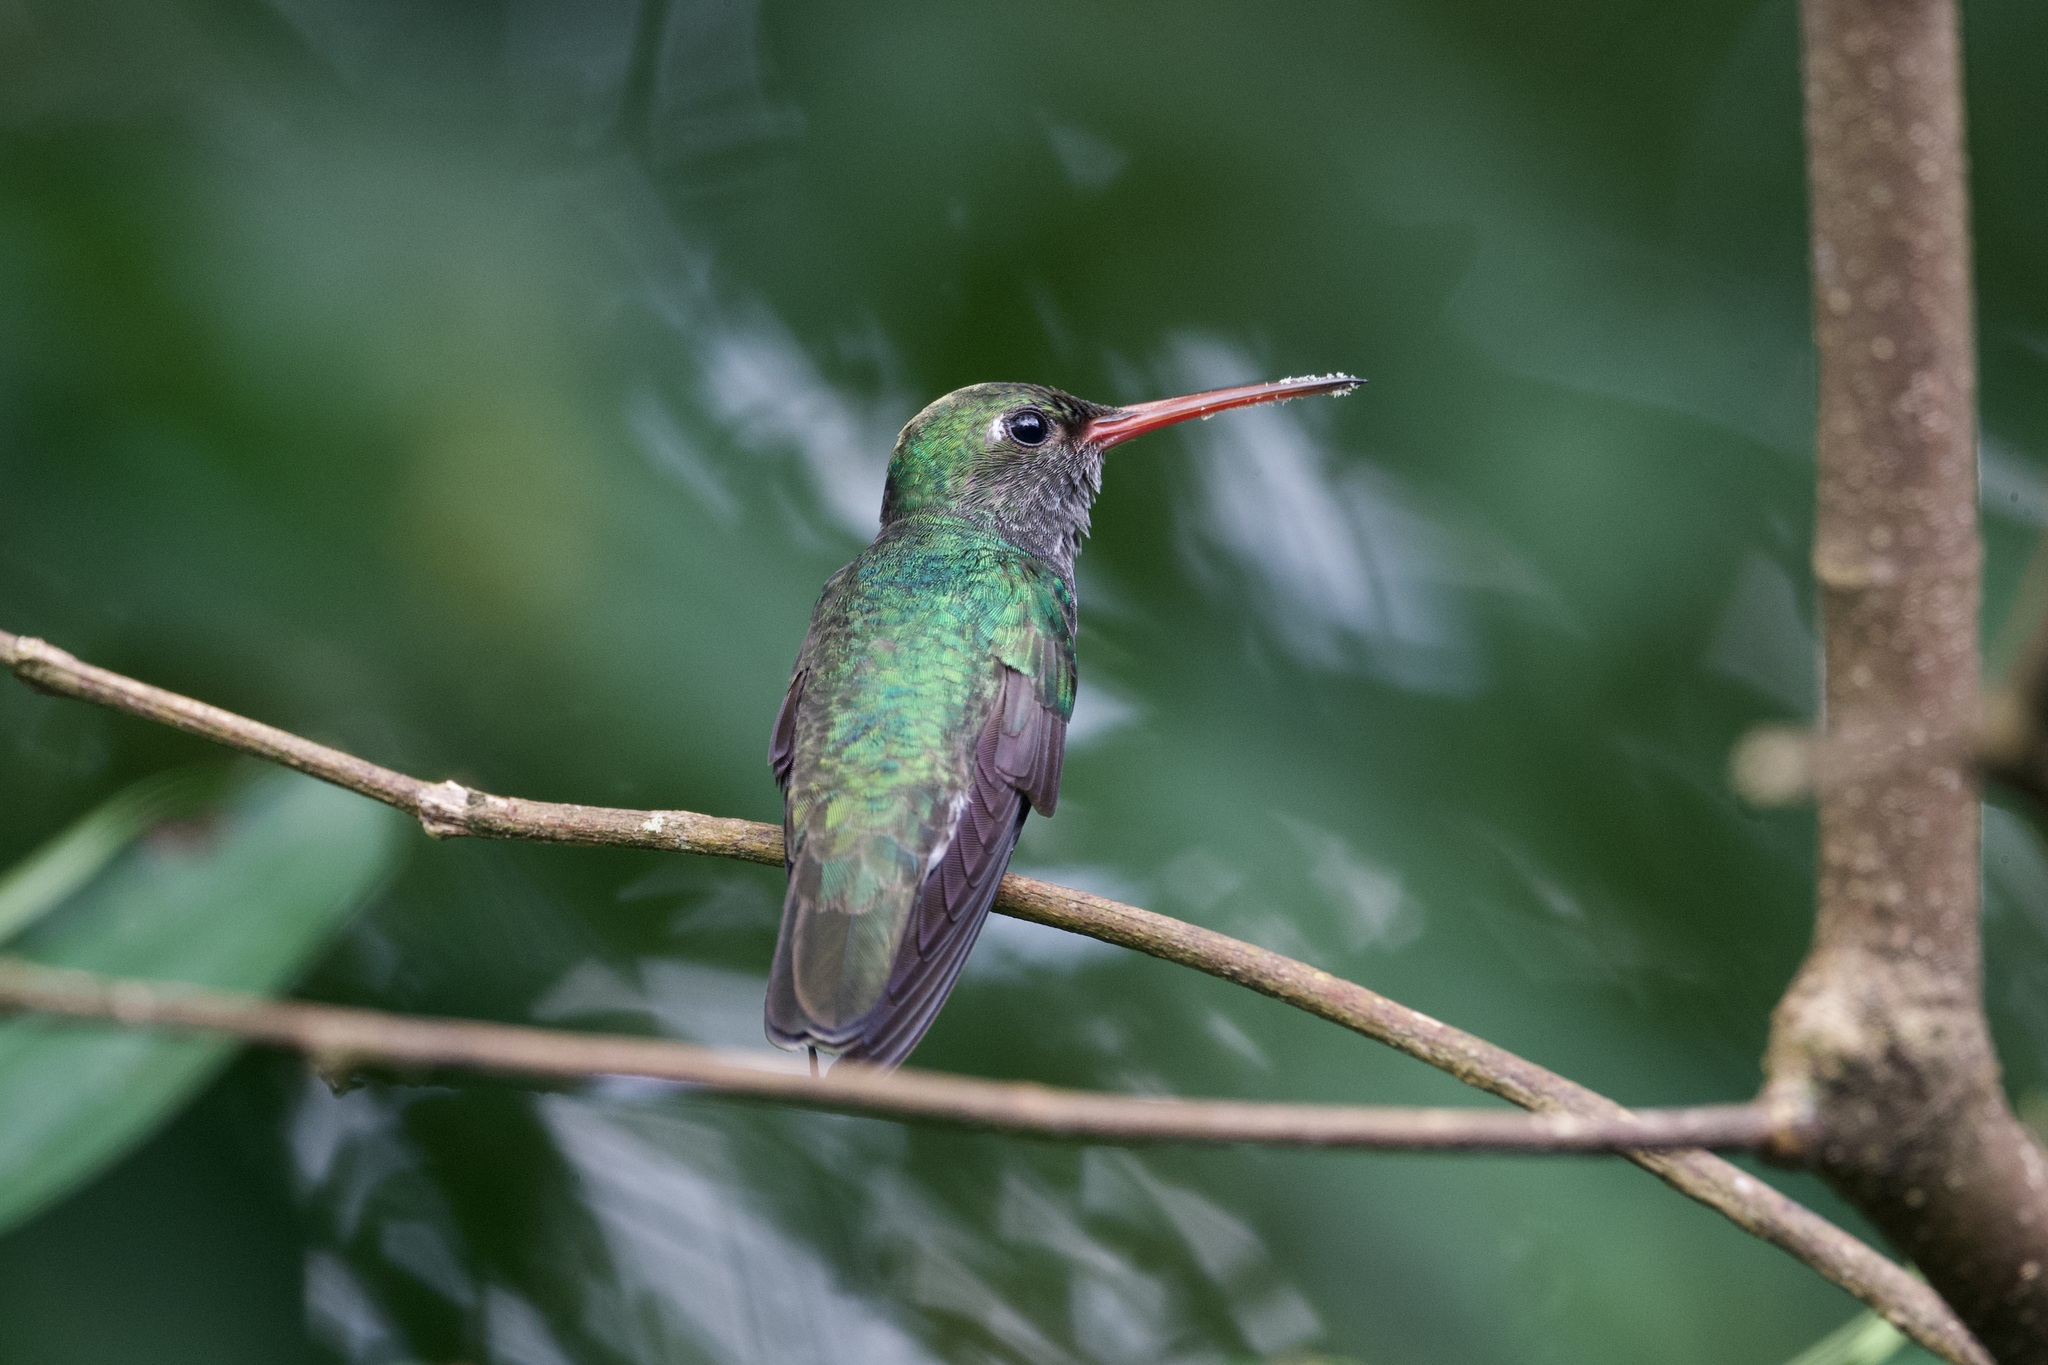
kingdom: Animalia
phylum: Chordata
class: Aves
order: Apodiformes
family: Trochilidae
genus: Chionomesa
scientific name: Chionomesa fimbriata
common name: Glittering-throated emerald
